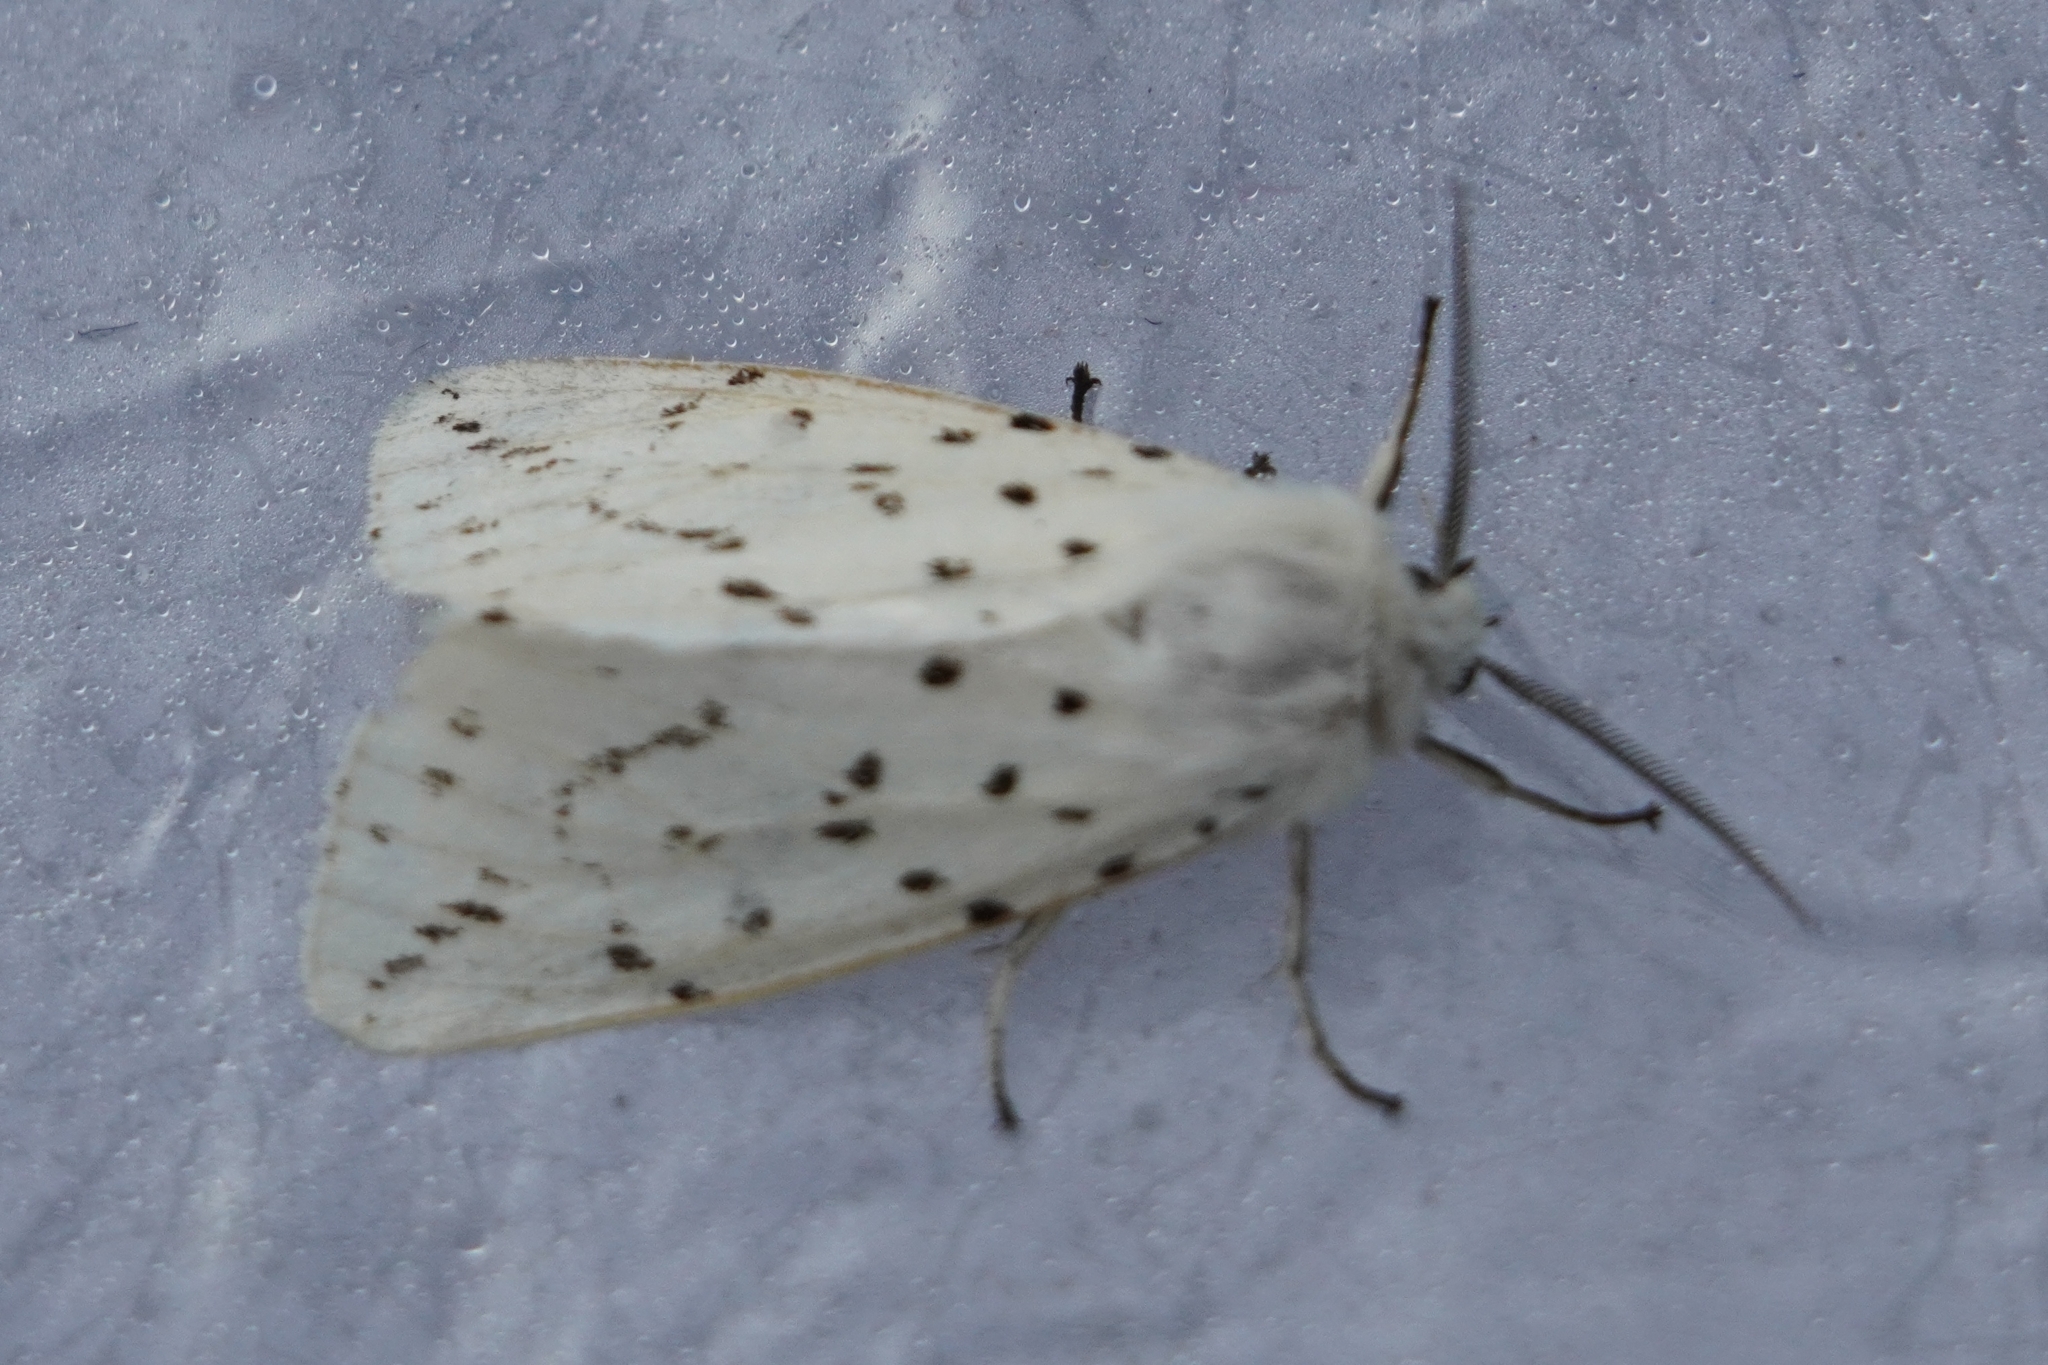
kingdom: Animalia
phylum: Arthropoda
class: Insecta
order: Lepidoptera
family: Erebidae
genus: Spilosoma
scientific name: Spilosoma lubricipeda
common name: White ermine
